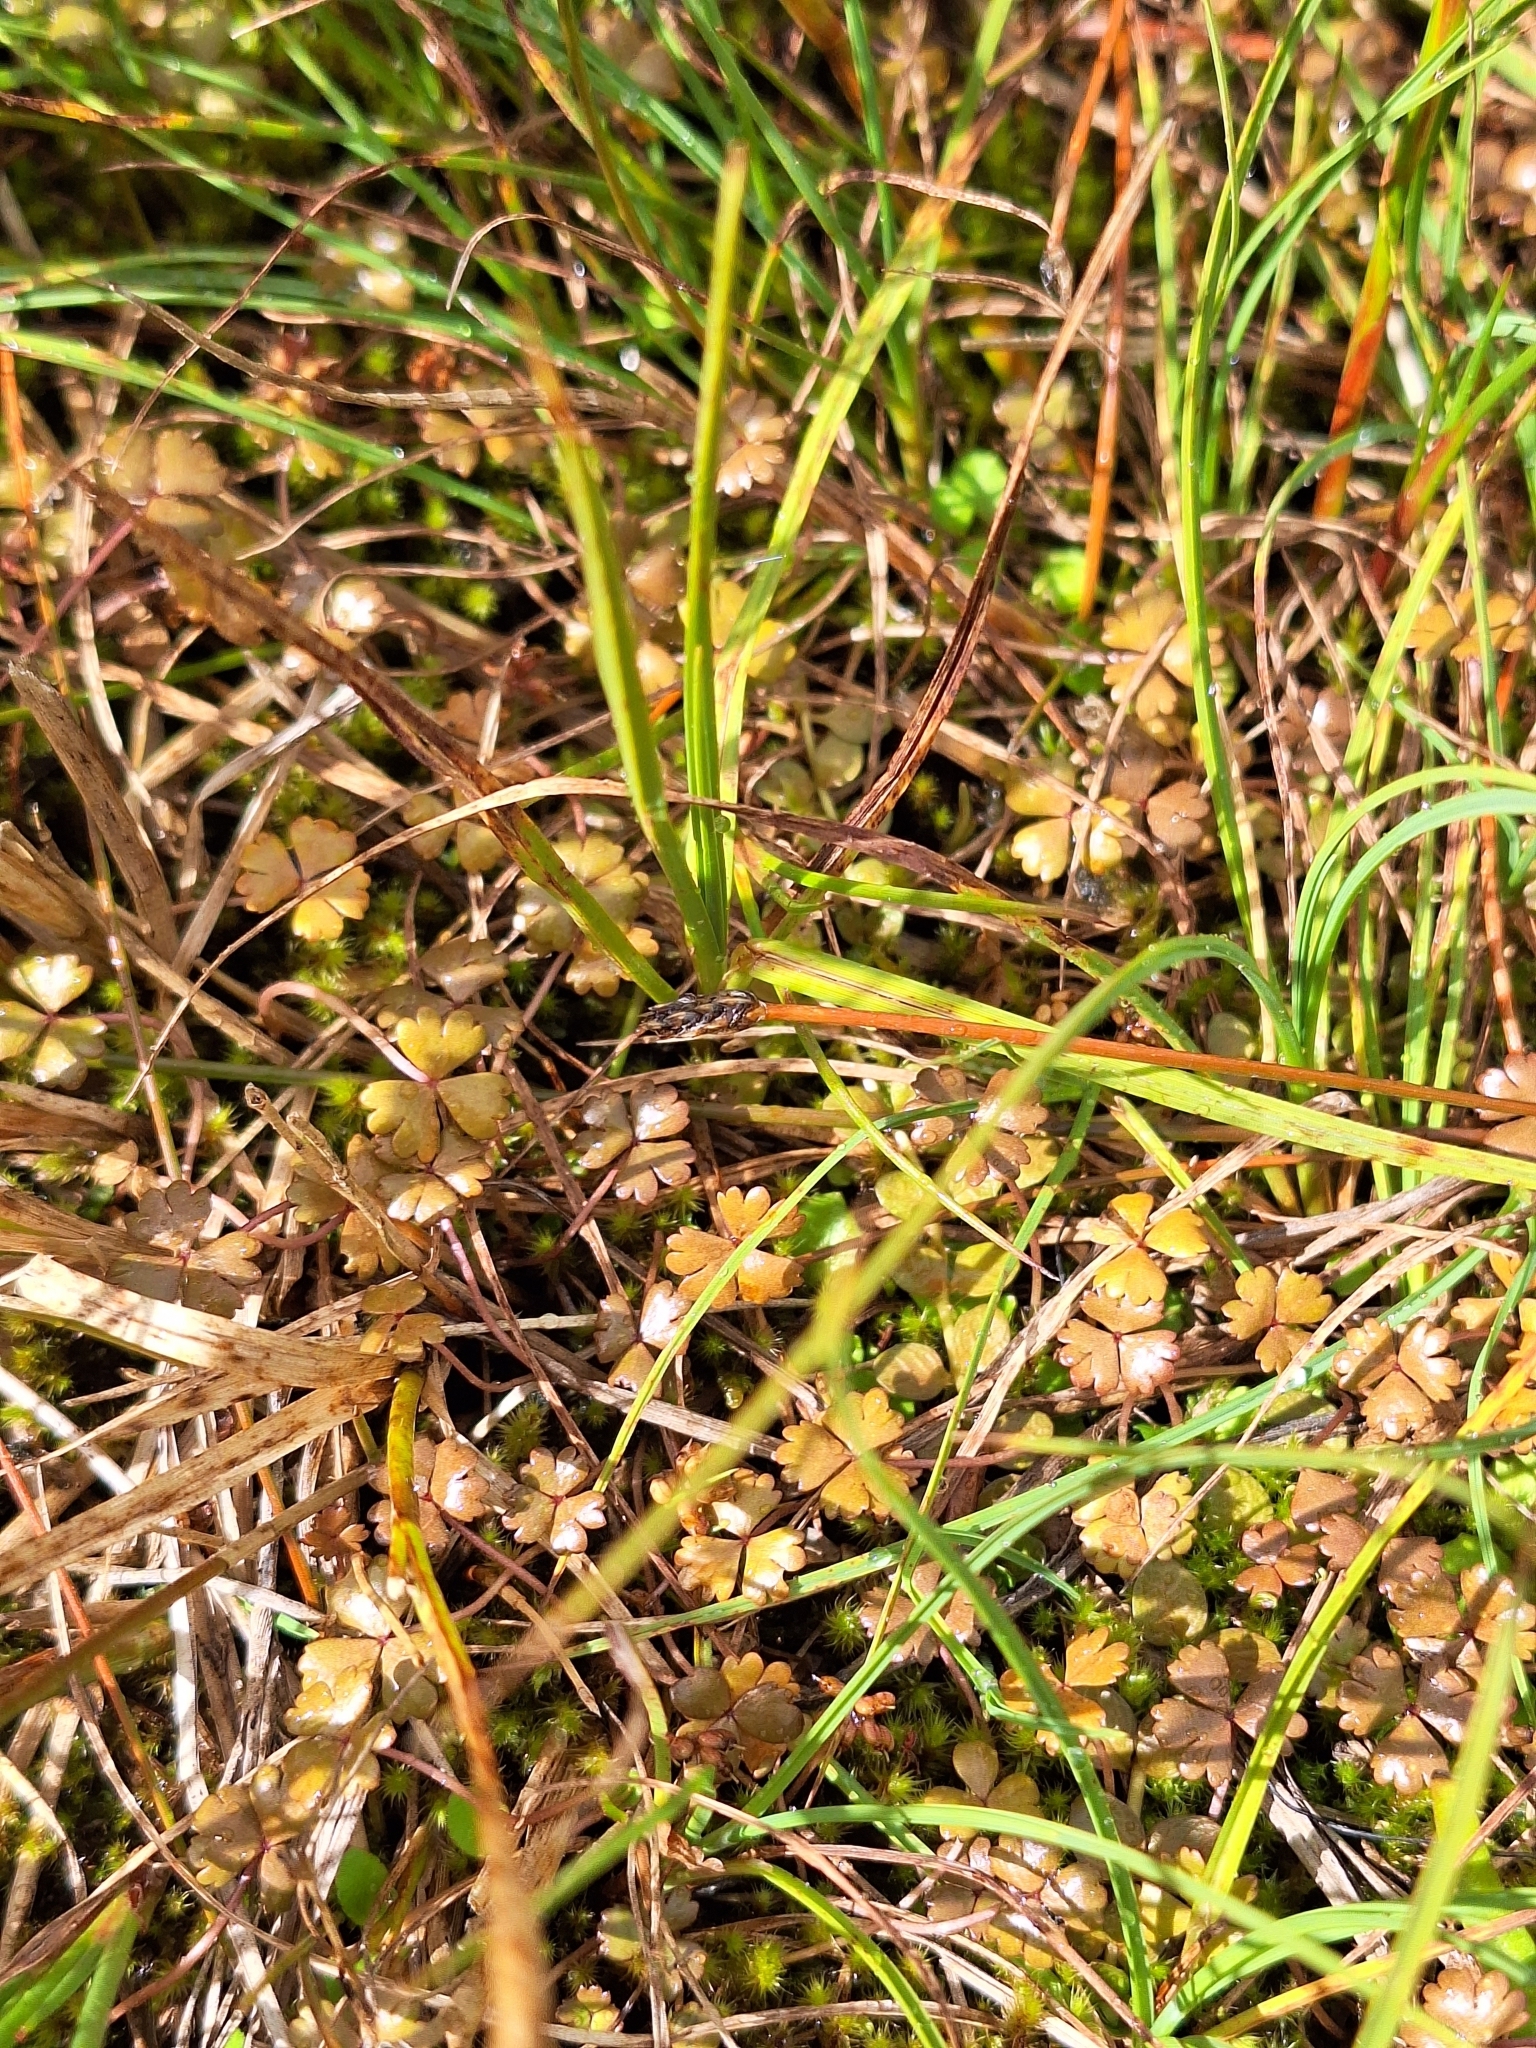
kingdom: Plantae
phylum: Tracheophyta
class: Magnoliopsida
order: Apiales
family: Araliaceae
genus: Hydrocotyle
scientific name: Hydrocotyle sulcata
